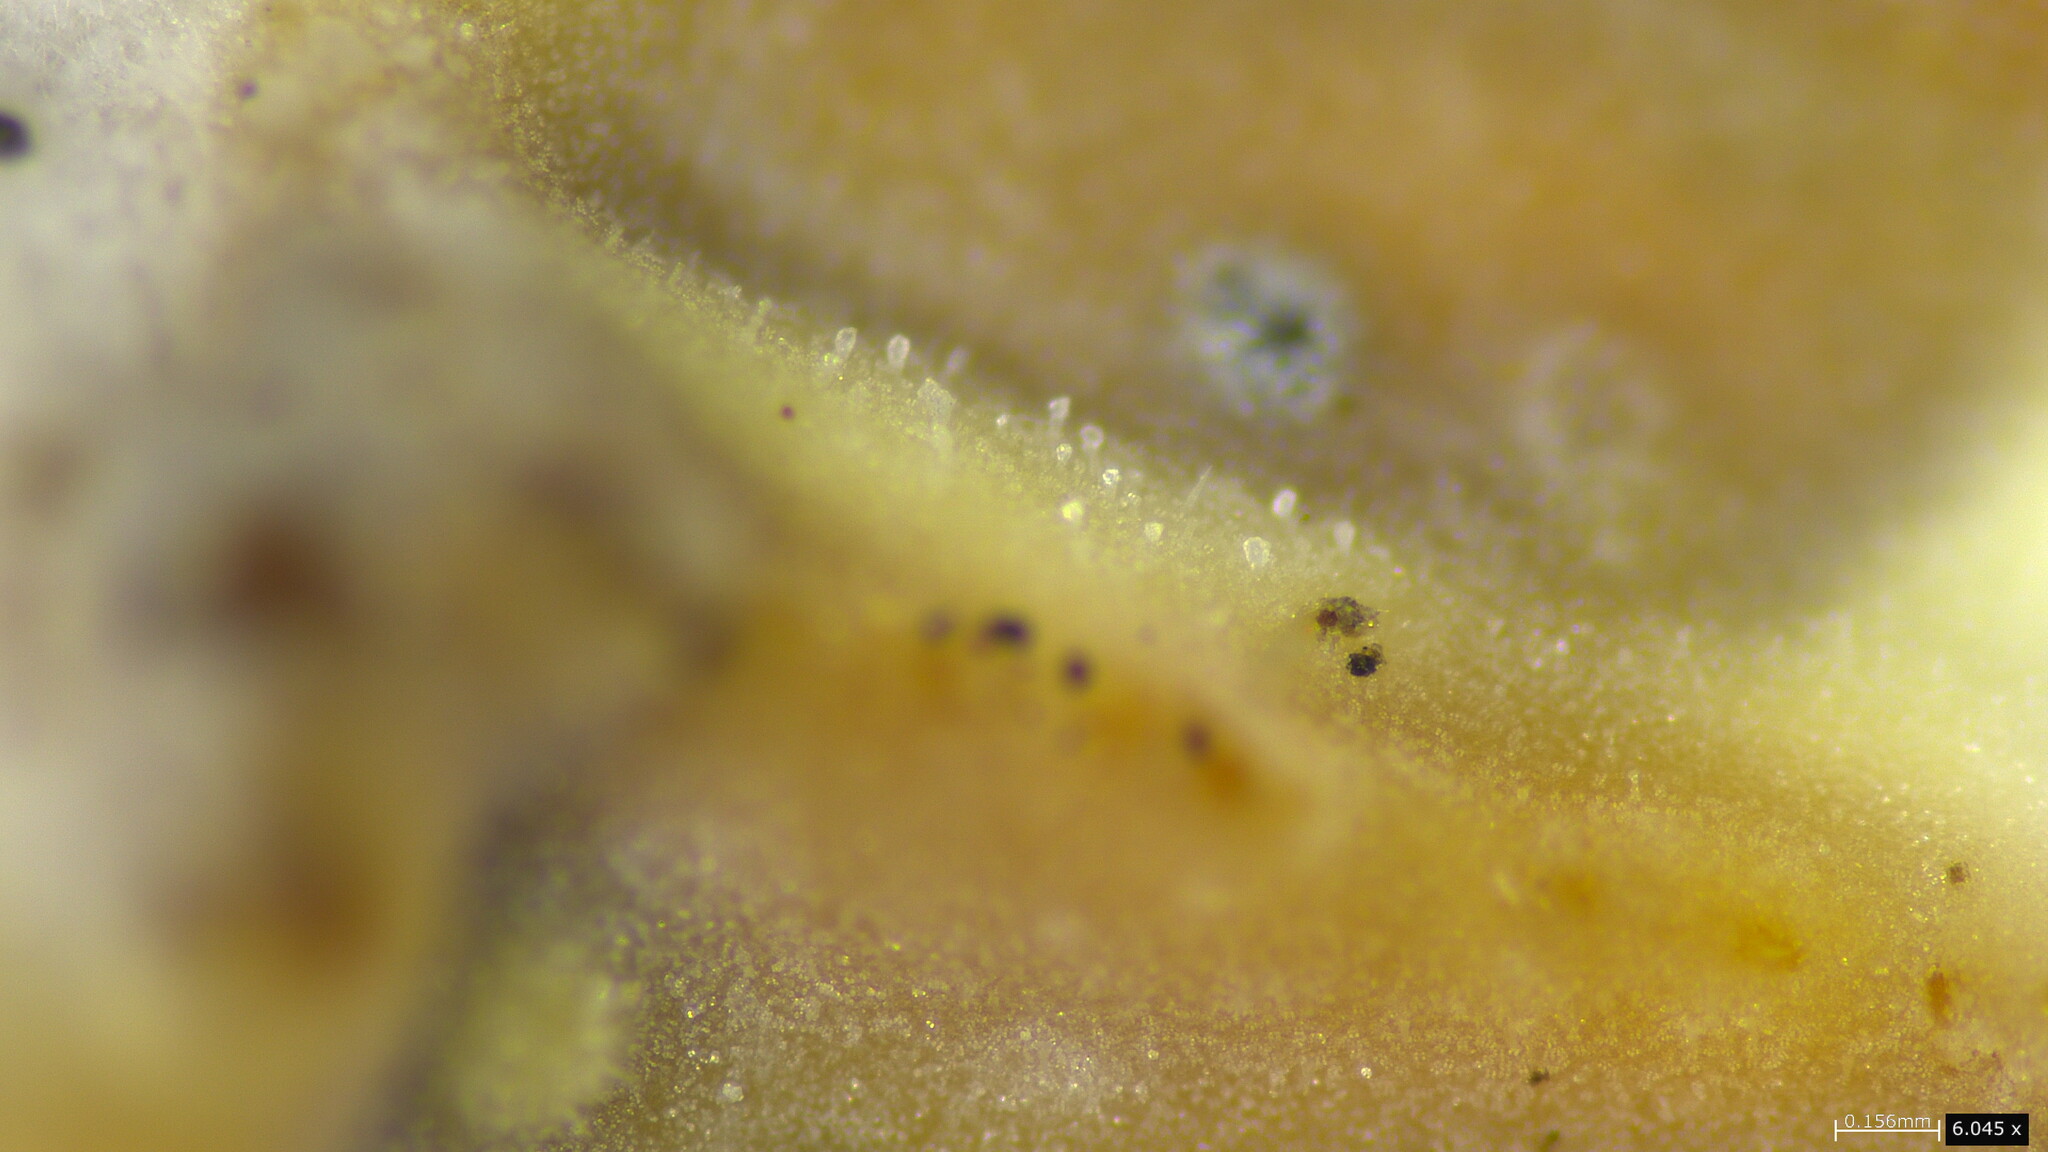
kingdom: Fungi
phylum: Basidiomycota
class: Agaricomycetes
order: Polyporales
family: Polyporaceae
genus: Lopharia
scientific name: Lopharia cinerascens
